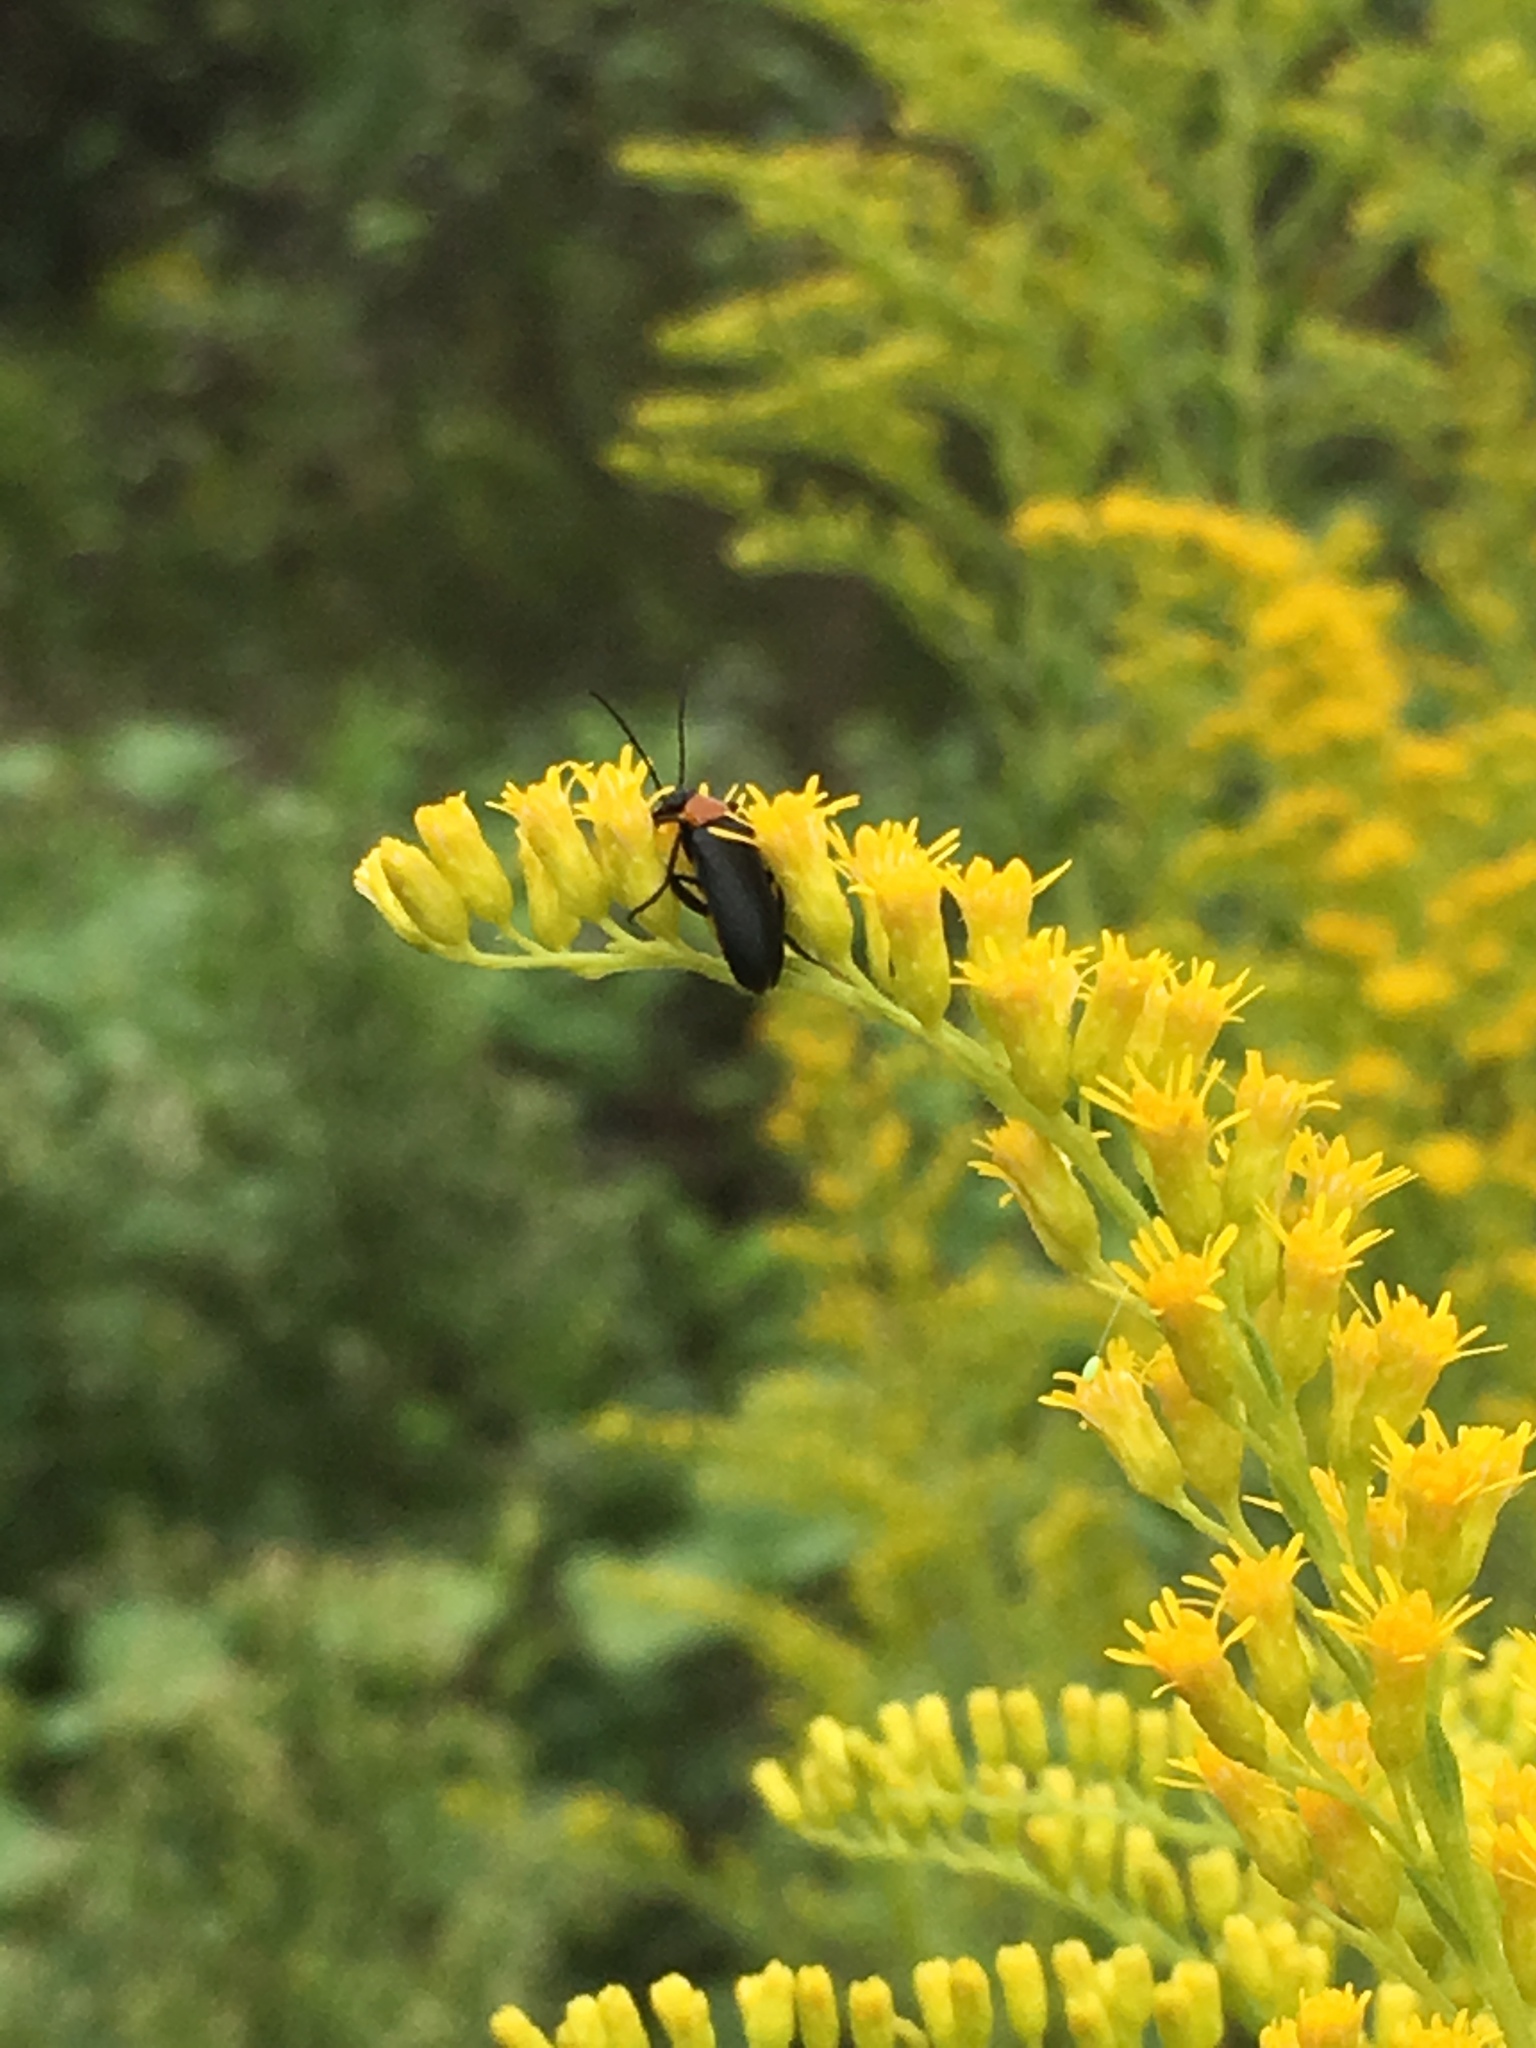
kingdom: Animalia
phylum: Arthropoda
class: Insecta
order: Coleoptera
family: Meloidae
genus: Nemognatha
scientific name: Nemognatha selanderi
